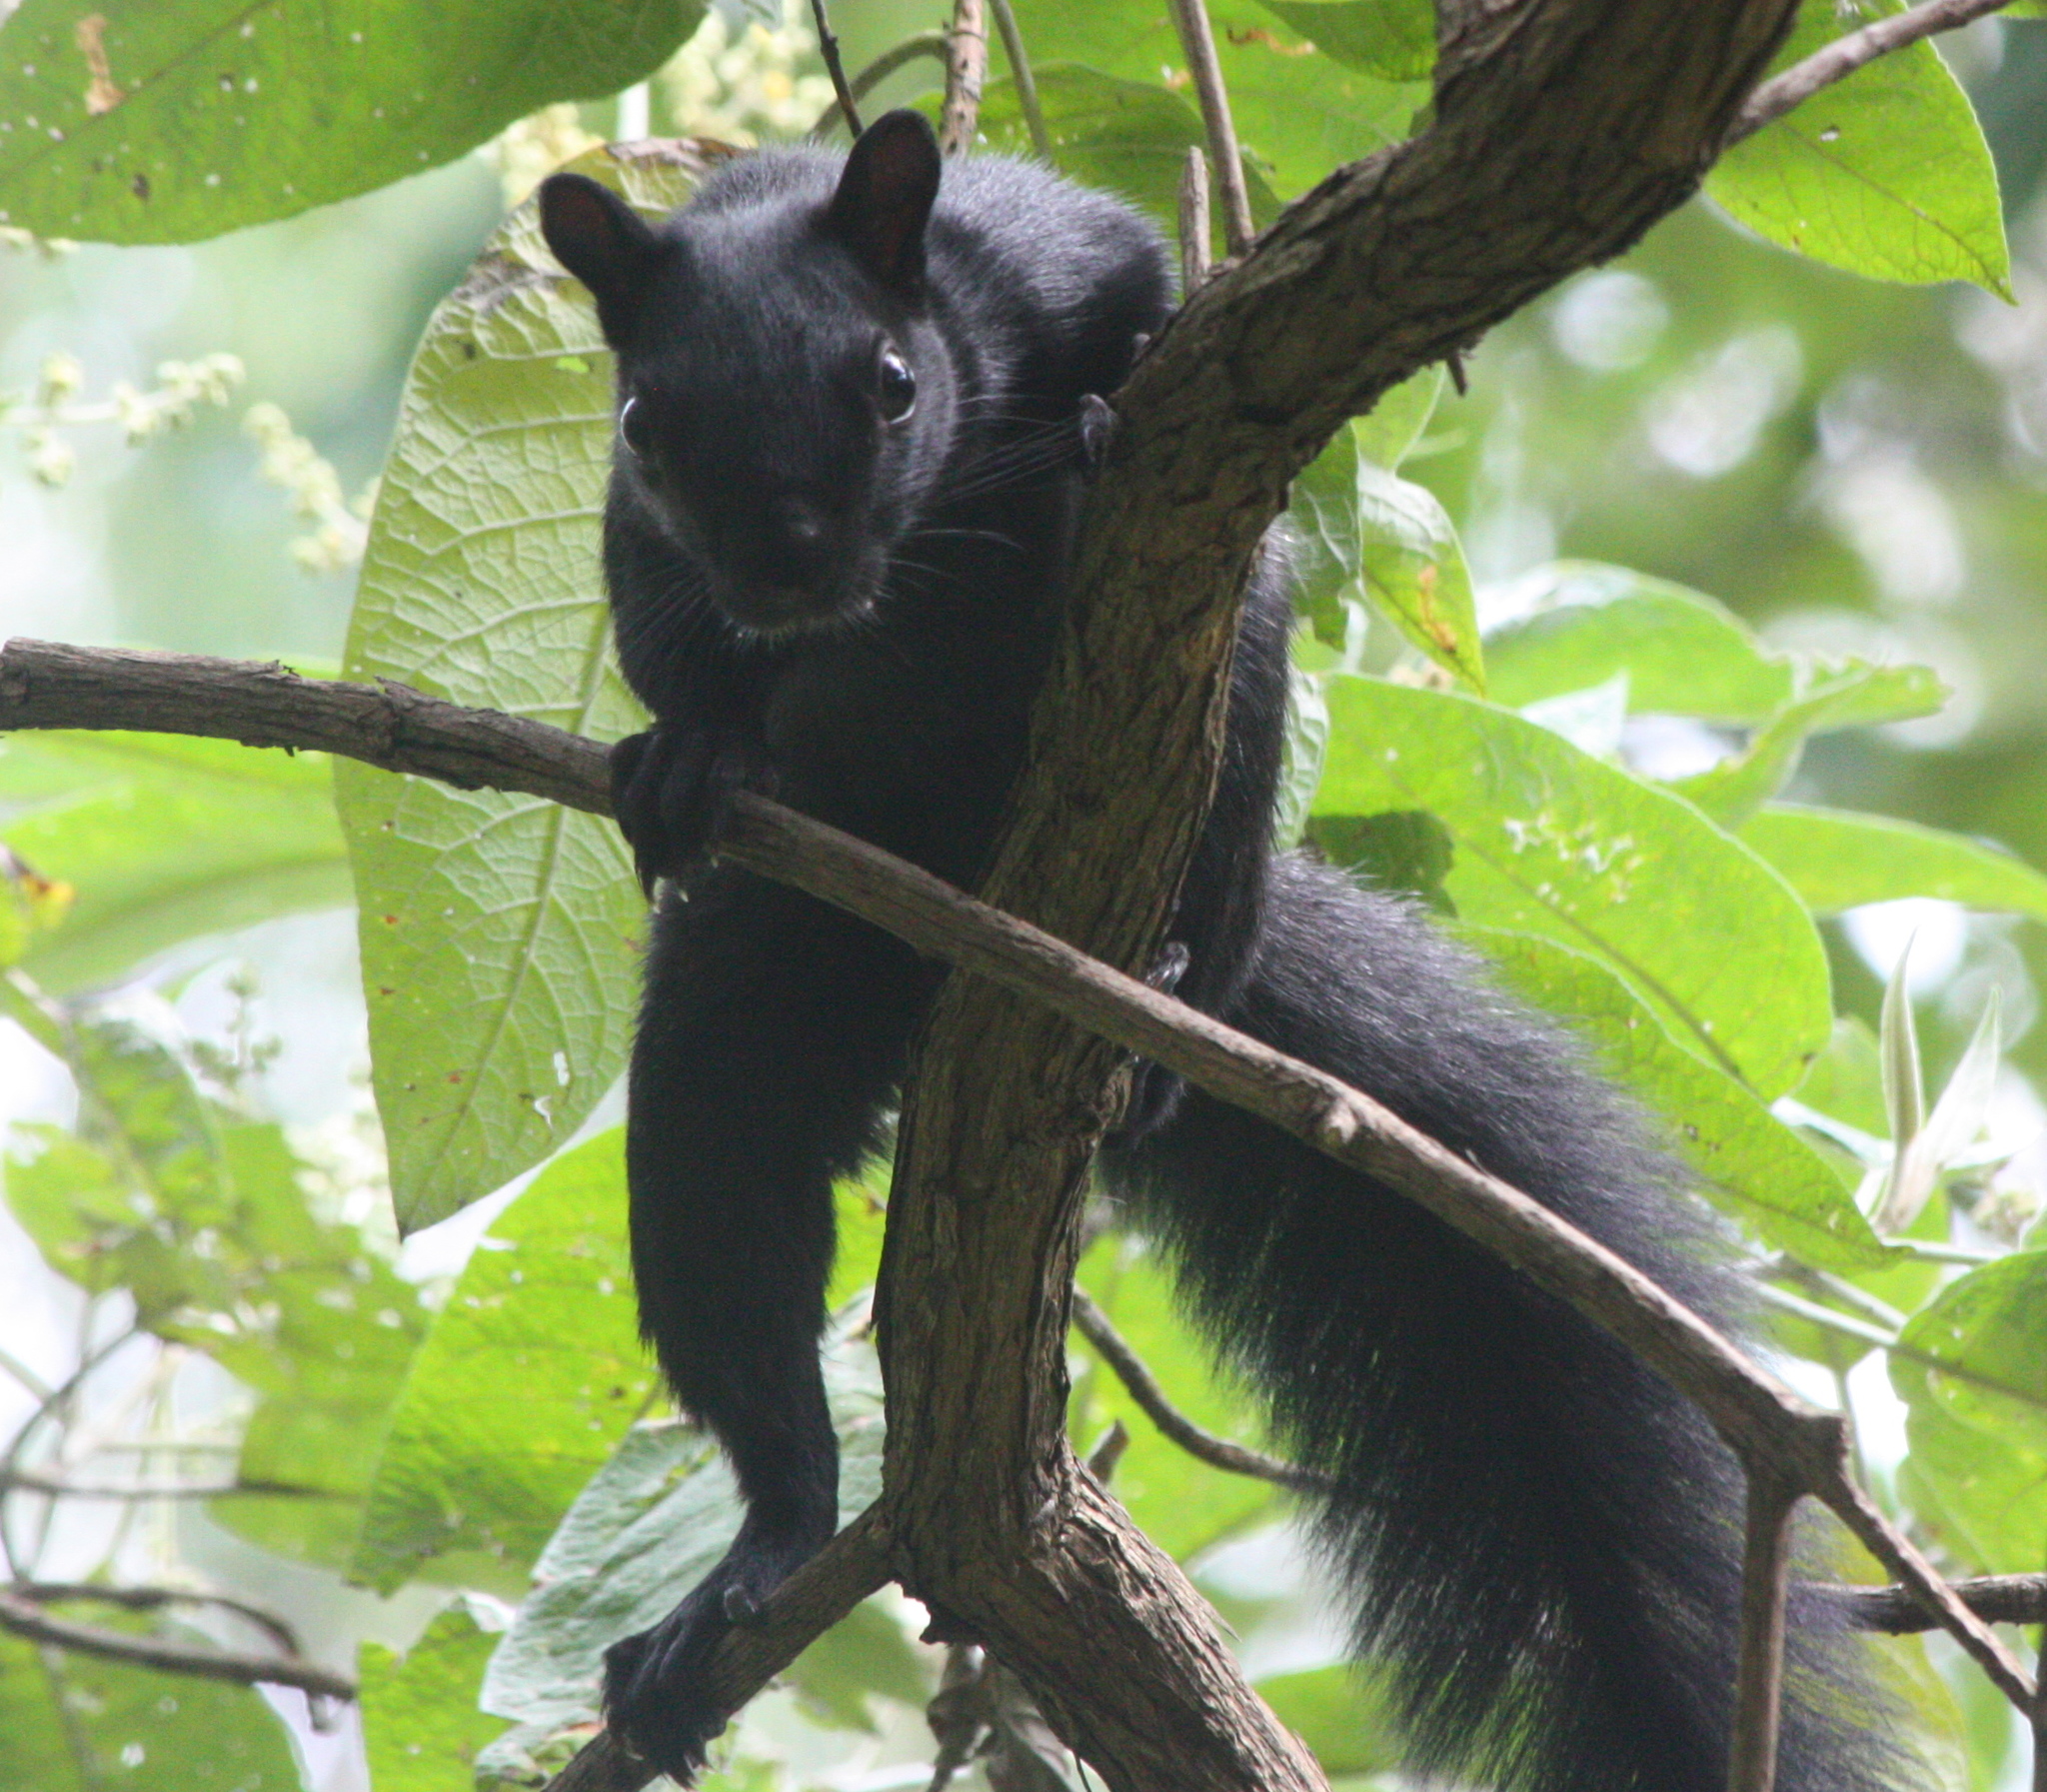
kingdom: Animalia
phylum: Chordata
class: Mammalia
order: Rodentia
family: Sciuridae
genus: Sciurus
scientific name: Sciurus aureogaster
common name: Red-bellied squirrel
